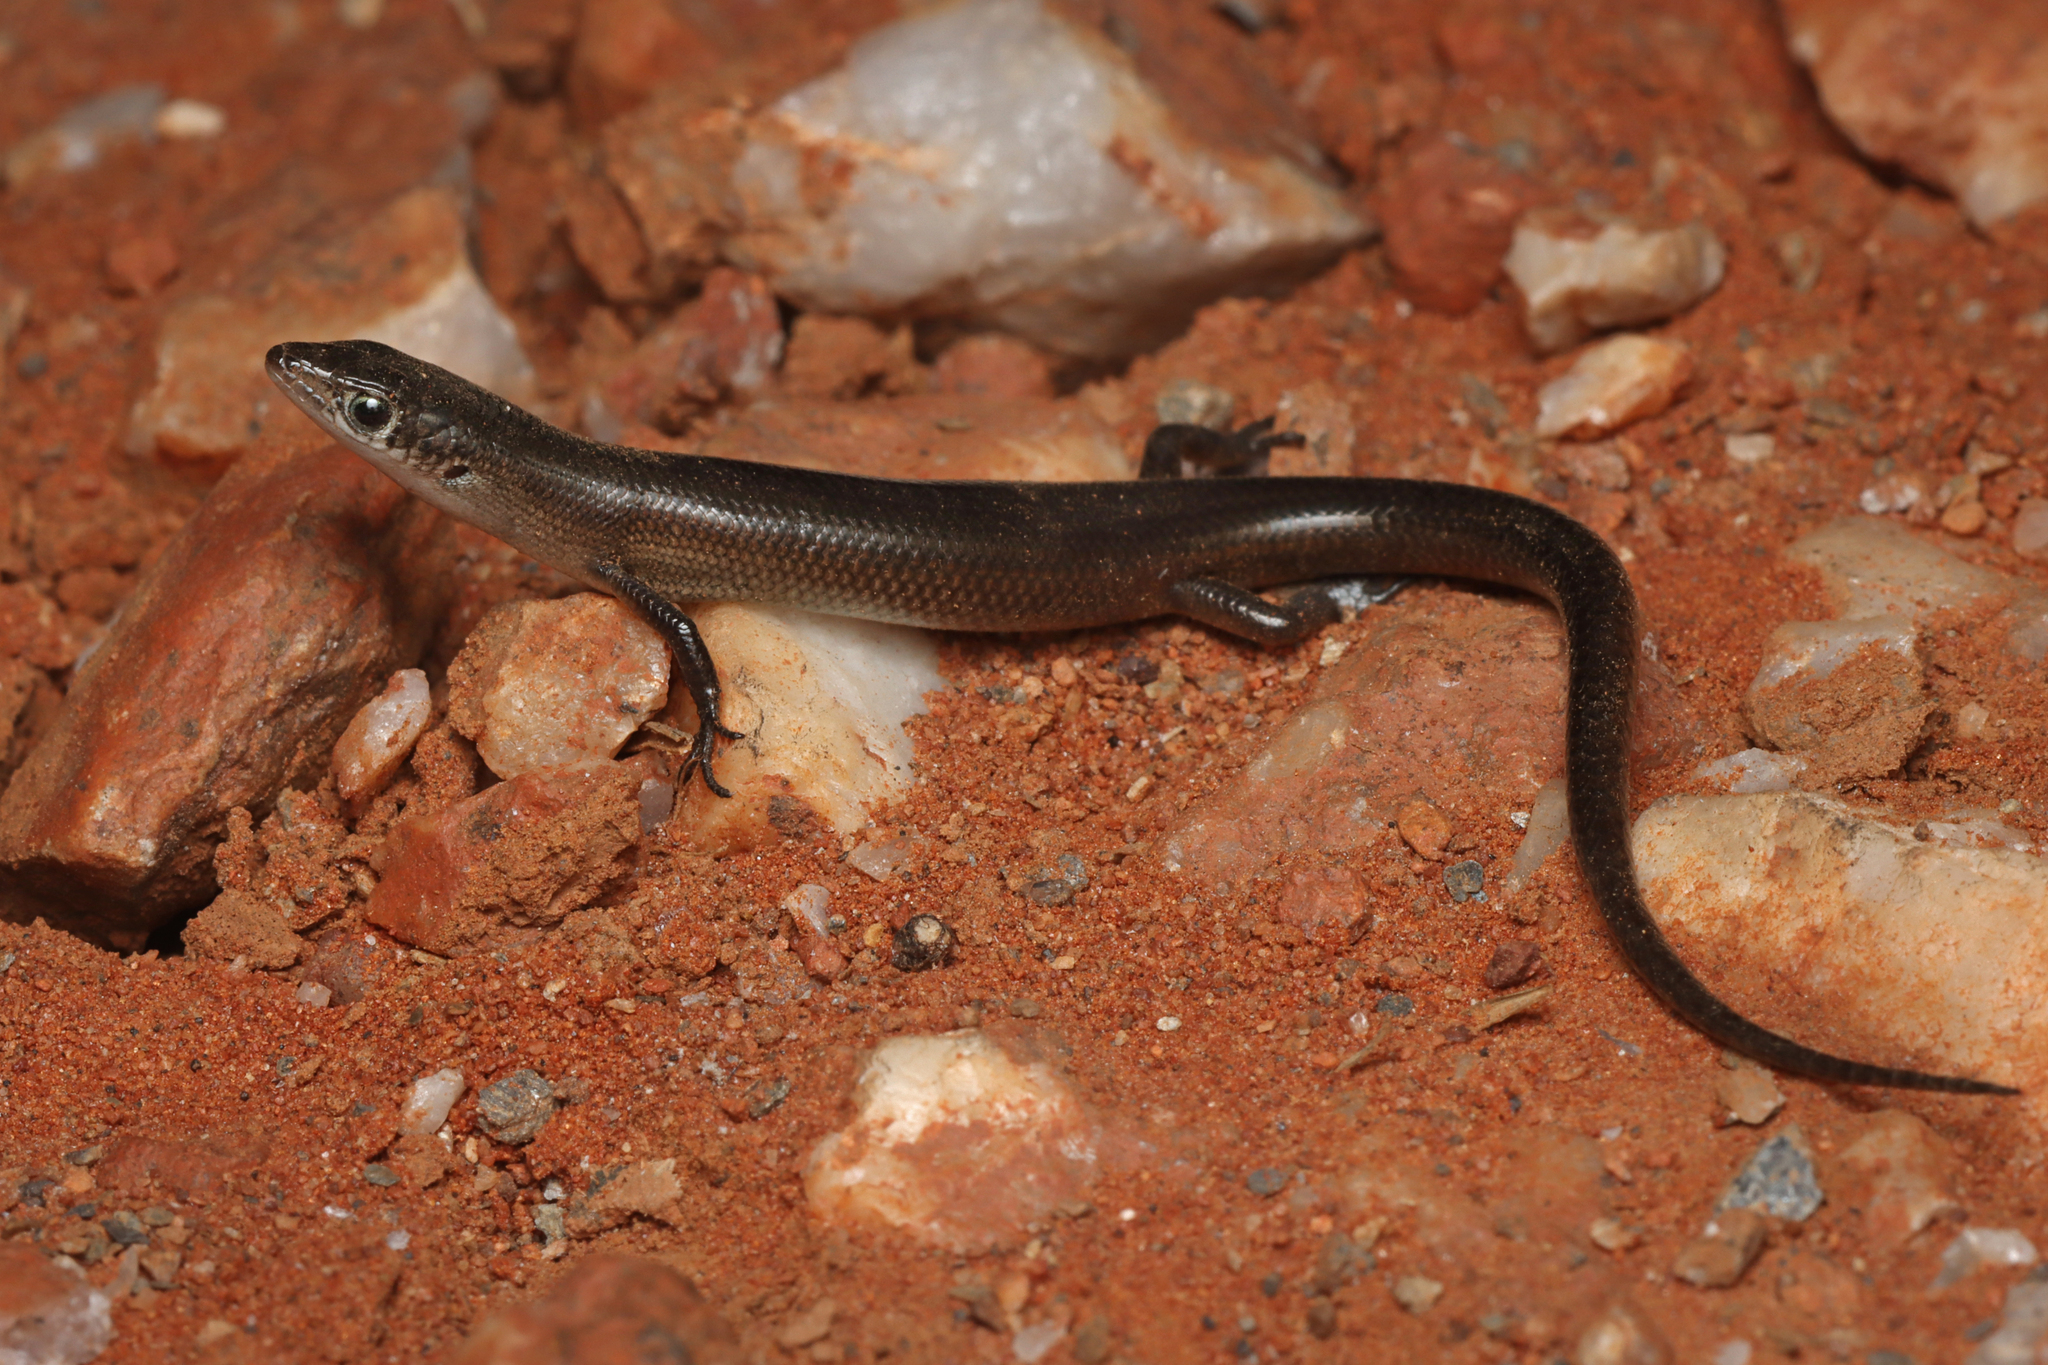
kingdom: Animalia
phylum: Chordata
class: Squamata
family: Scincidae
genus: Proablepharus
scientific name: Proablepharus reginae
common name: Western soil-crevice skink
